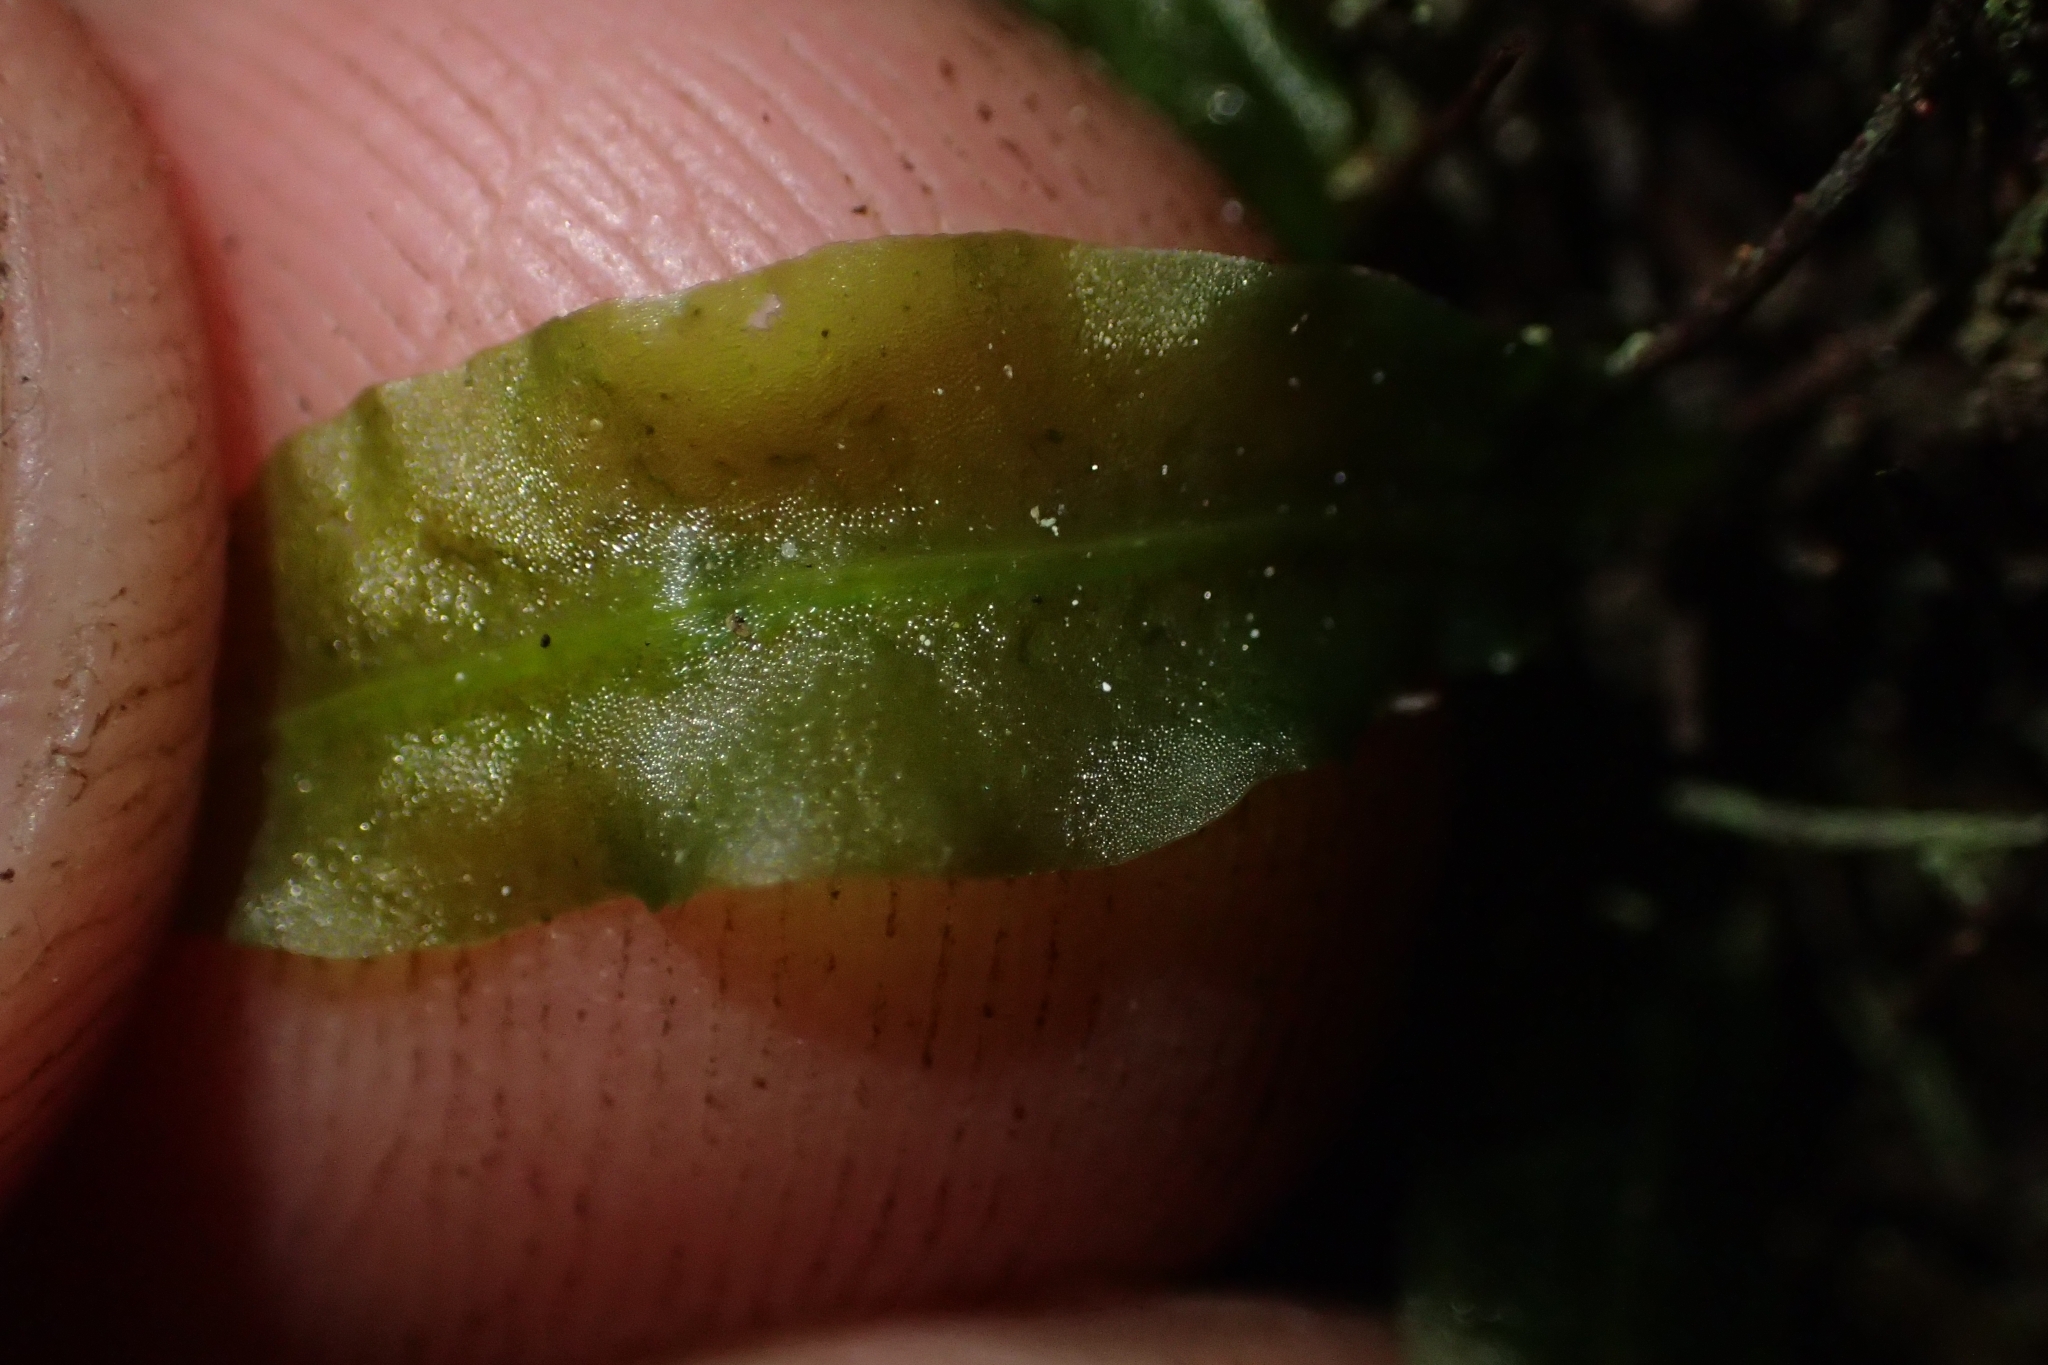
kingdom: Plantae
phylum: Marchantiophyta
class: Jungermanniopsida
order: Pallaviciniales
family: Pallaviciniaceae
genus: Symphyogyna
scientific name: Symphyogyna subsimplex
